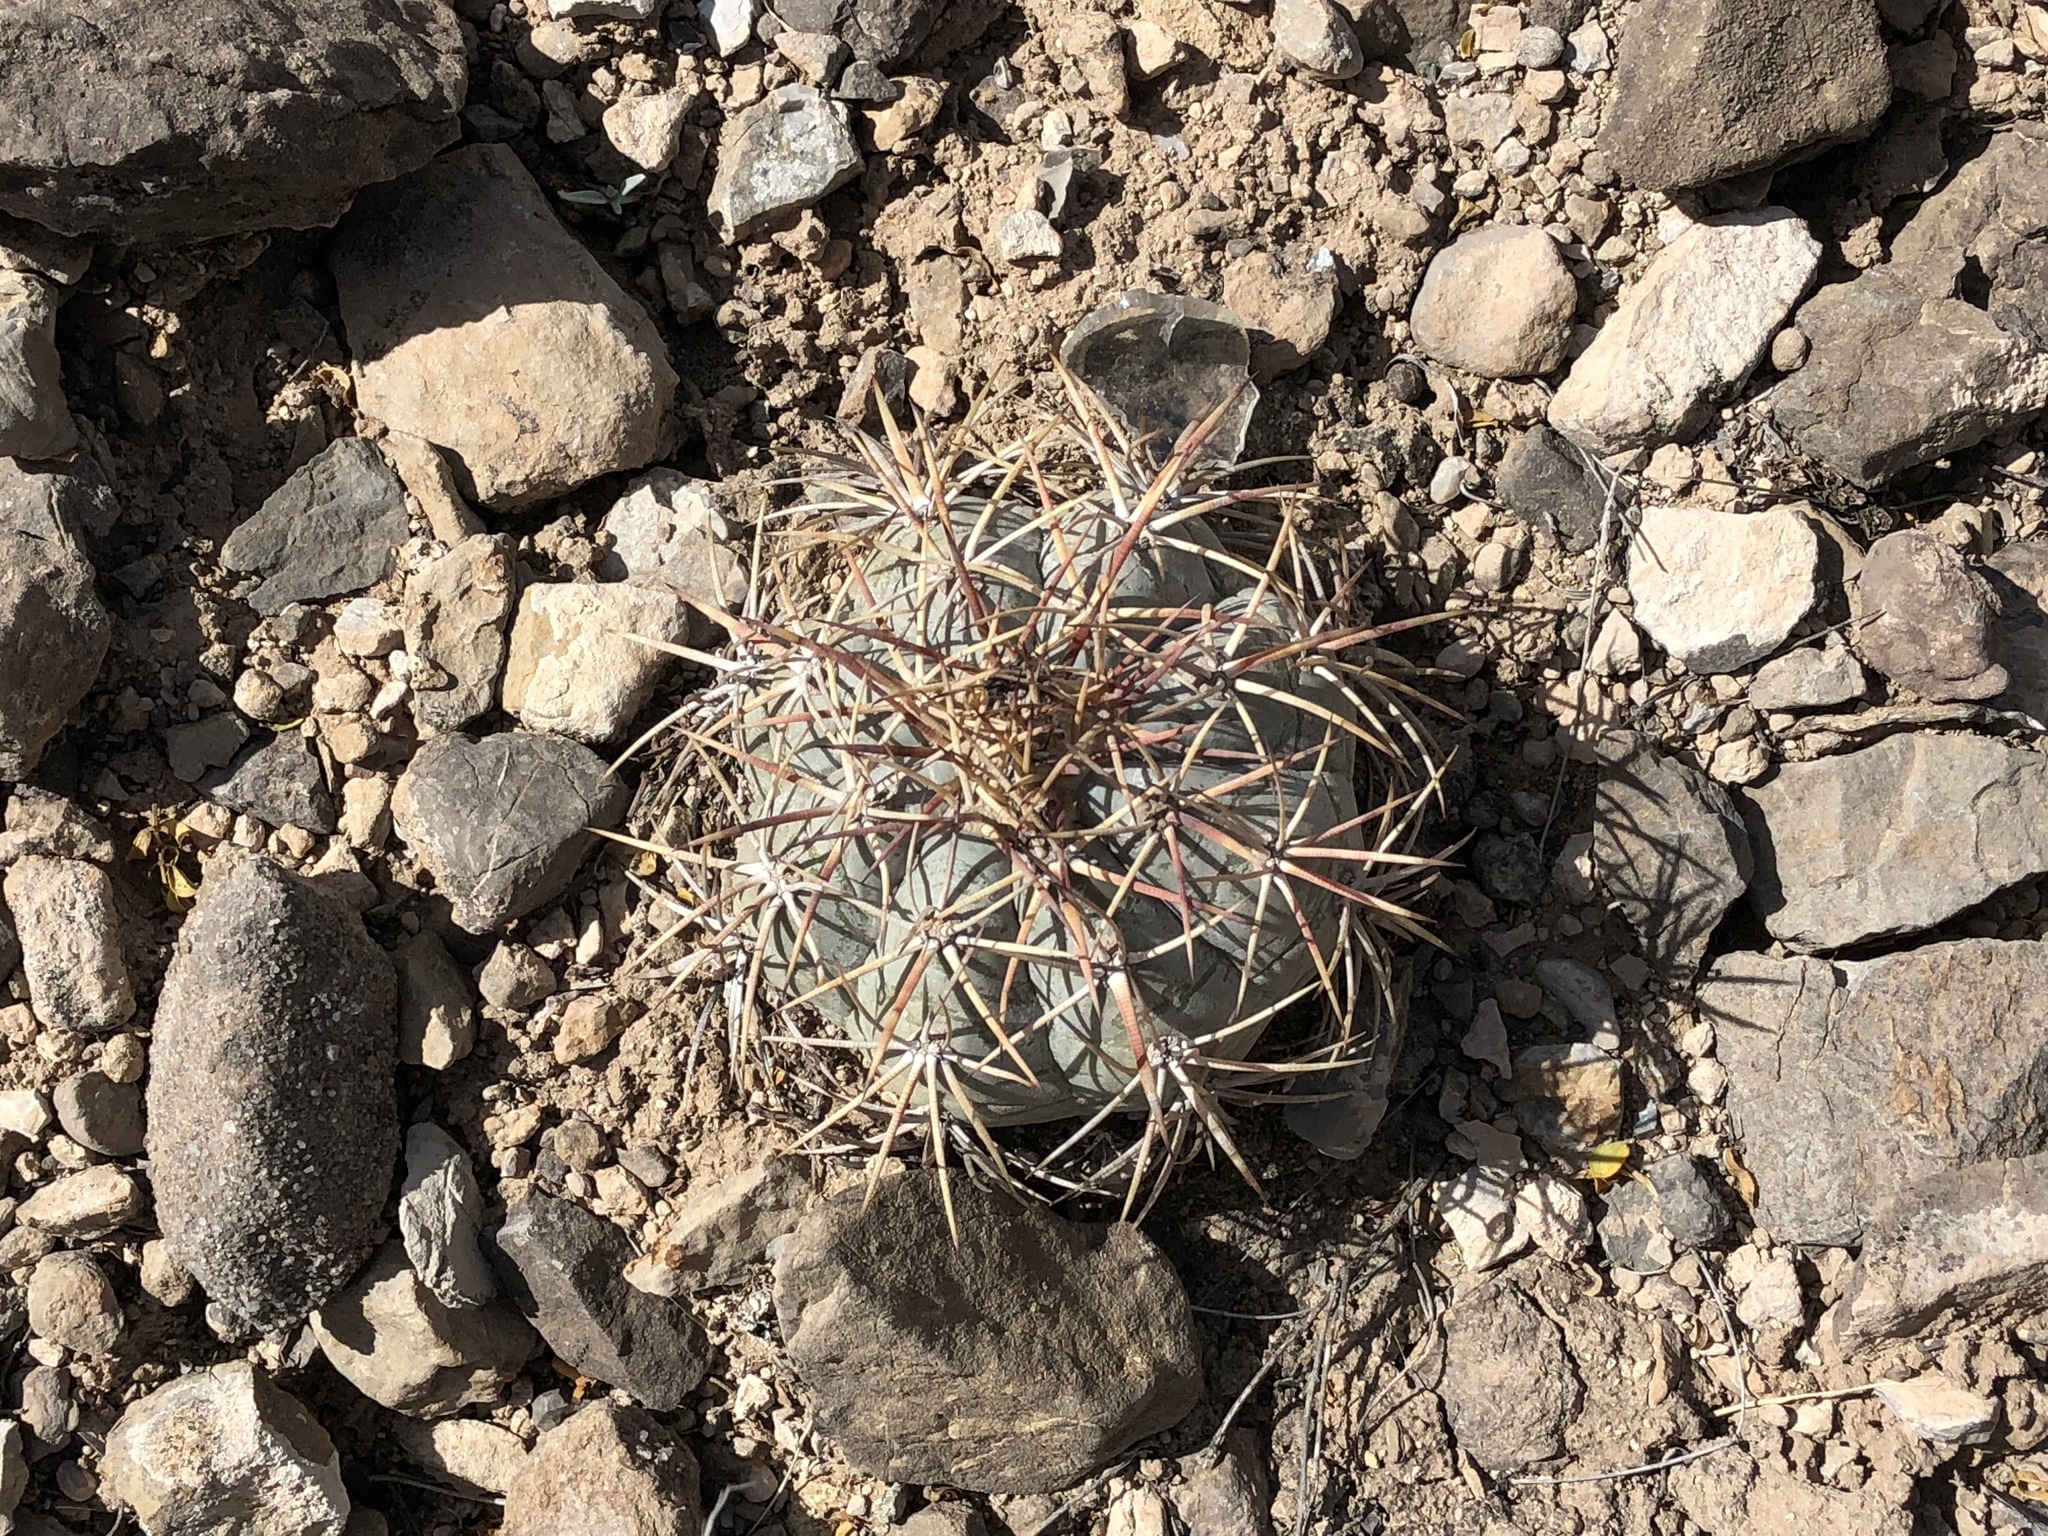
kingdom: Plantae
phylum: Tracheophyta
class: Magnoliopsida
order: Caryophyllales
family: Cactaceae
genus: Echinocactus
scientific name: Echinocactus horizonthalonius
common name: Devilshead
